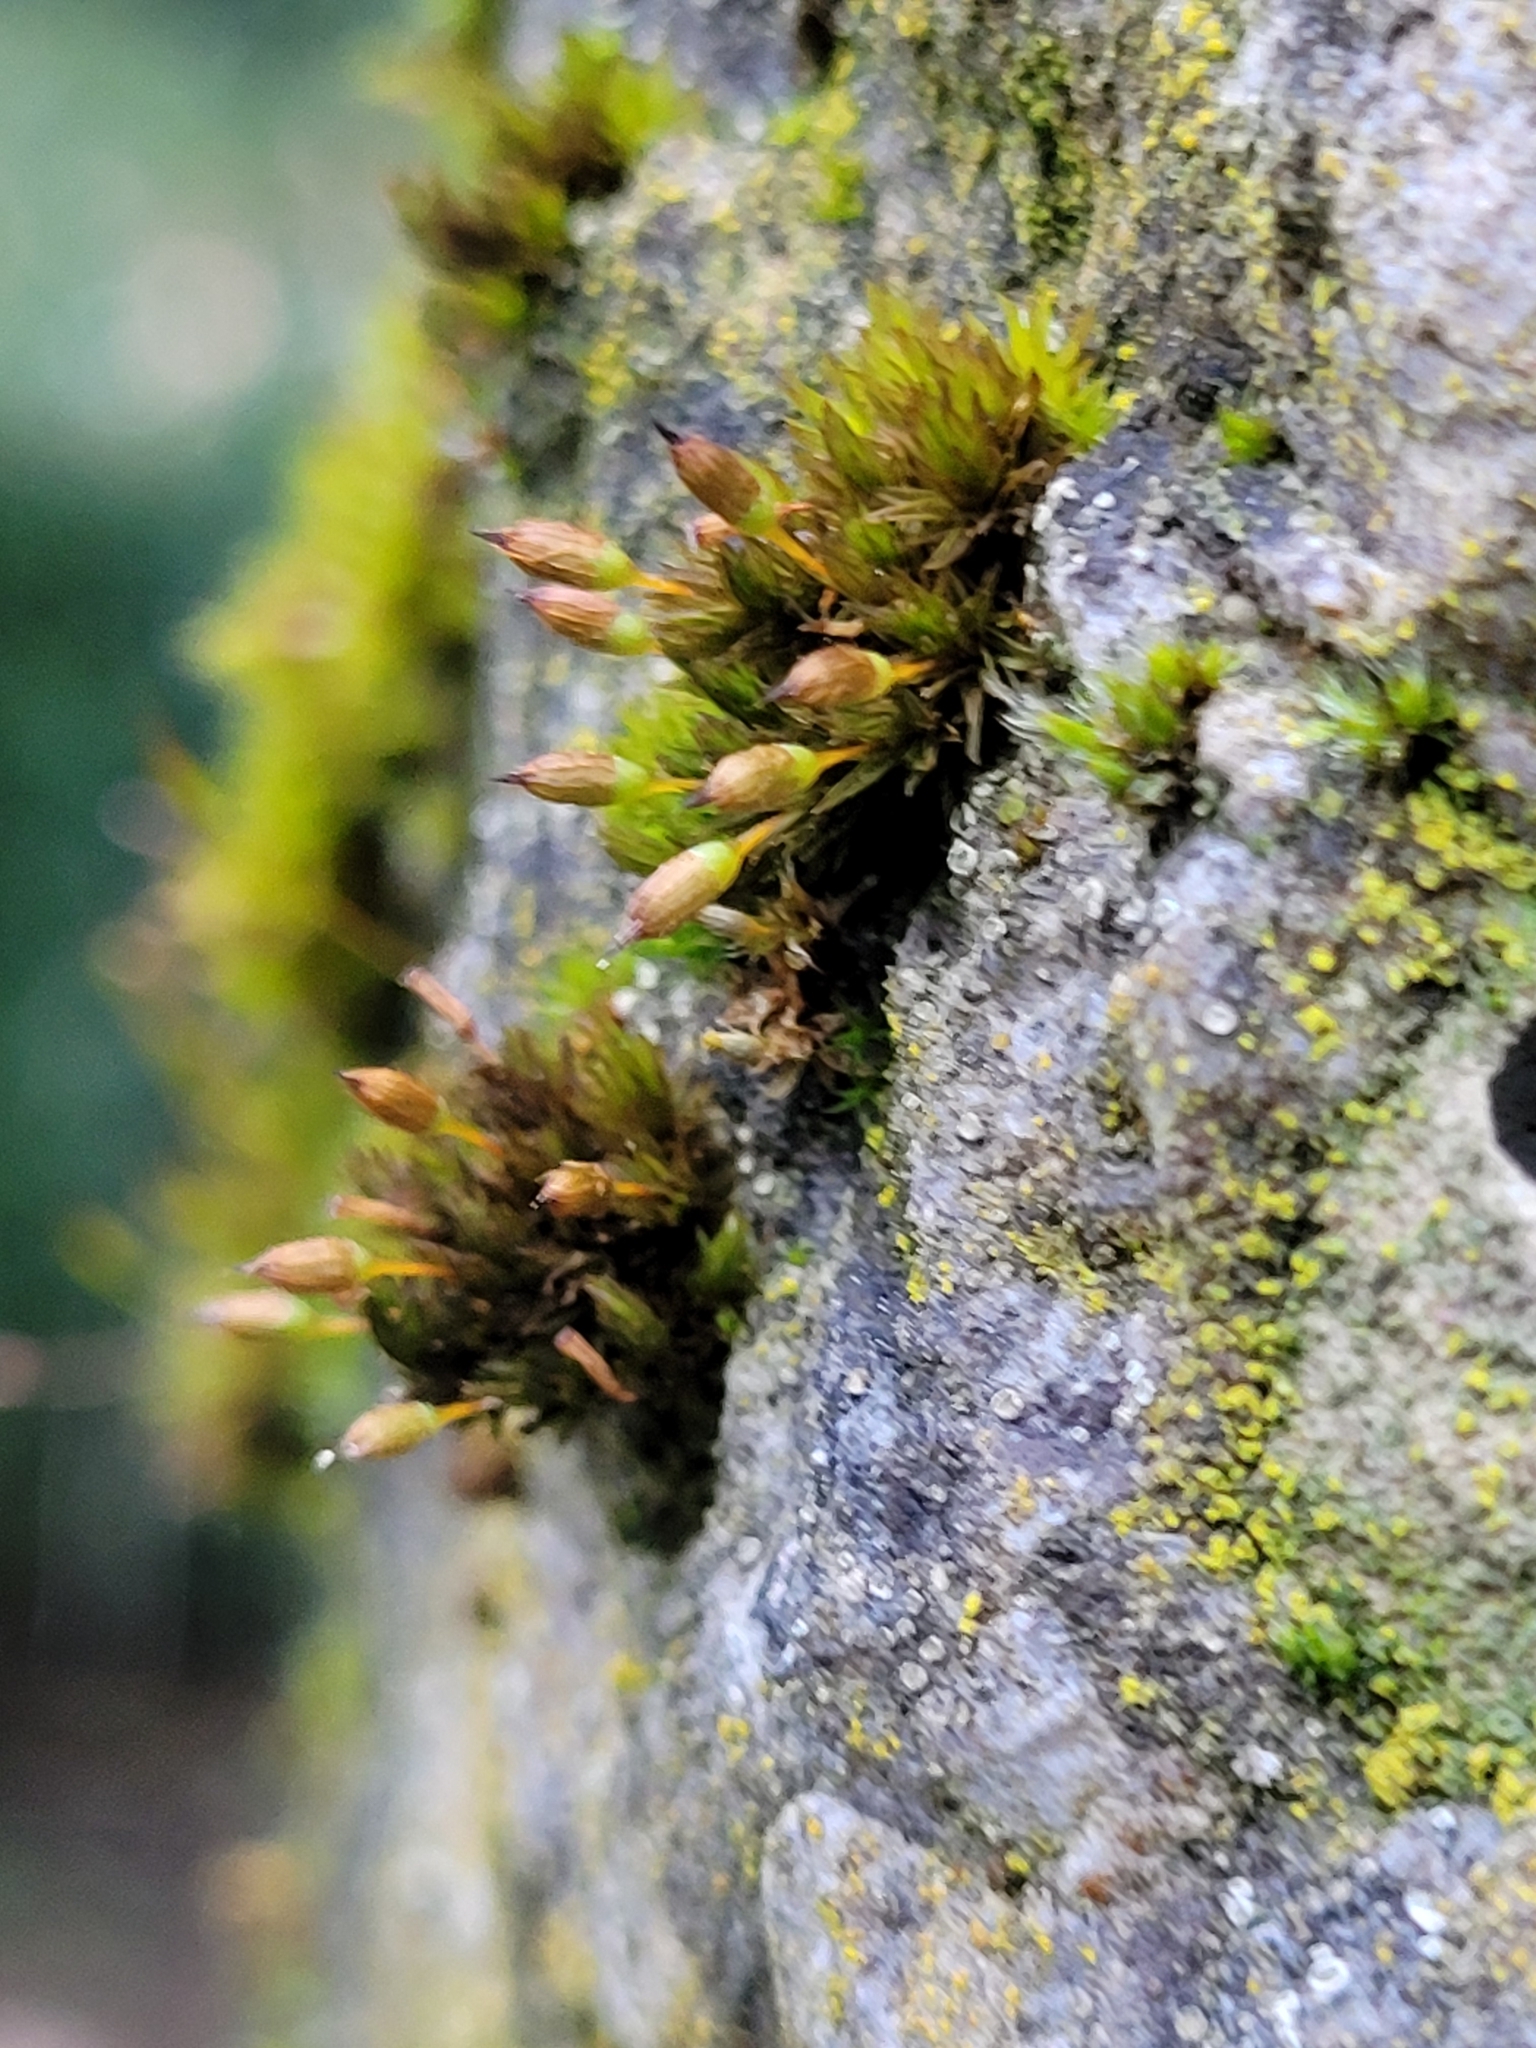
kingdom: Plantae
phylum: Bryophyta
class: Bryopsida
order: Orthotrichales
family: Orthotrichaceae
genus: Orthotrichum
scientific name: Orthotrichum anomalum
